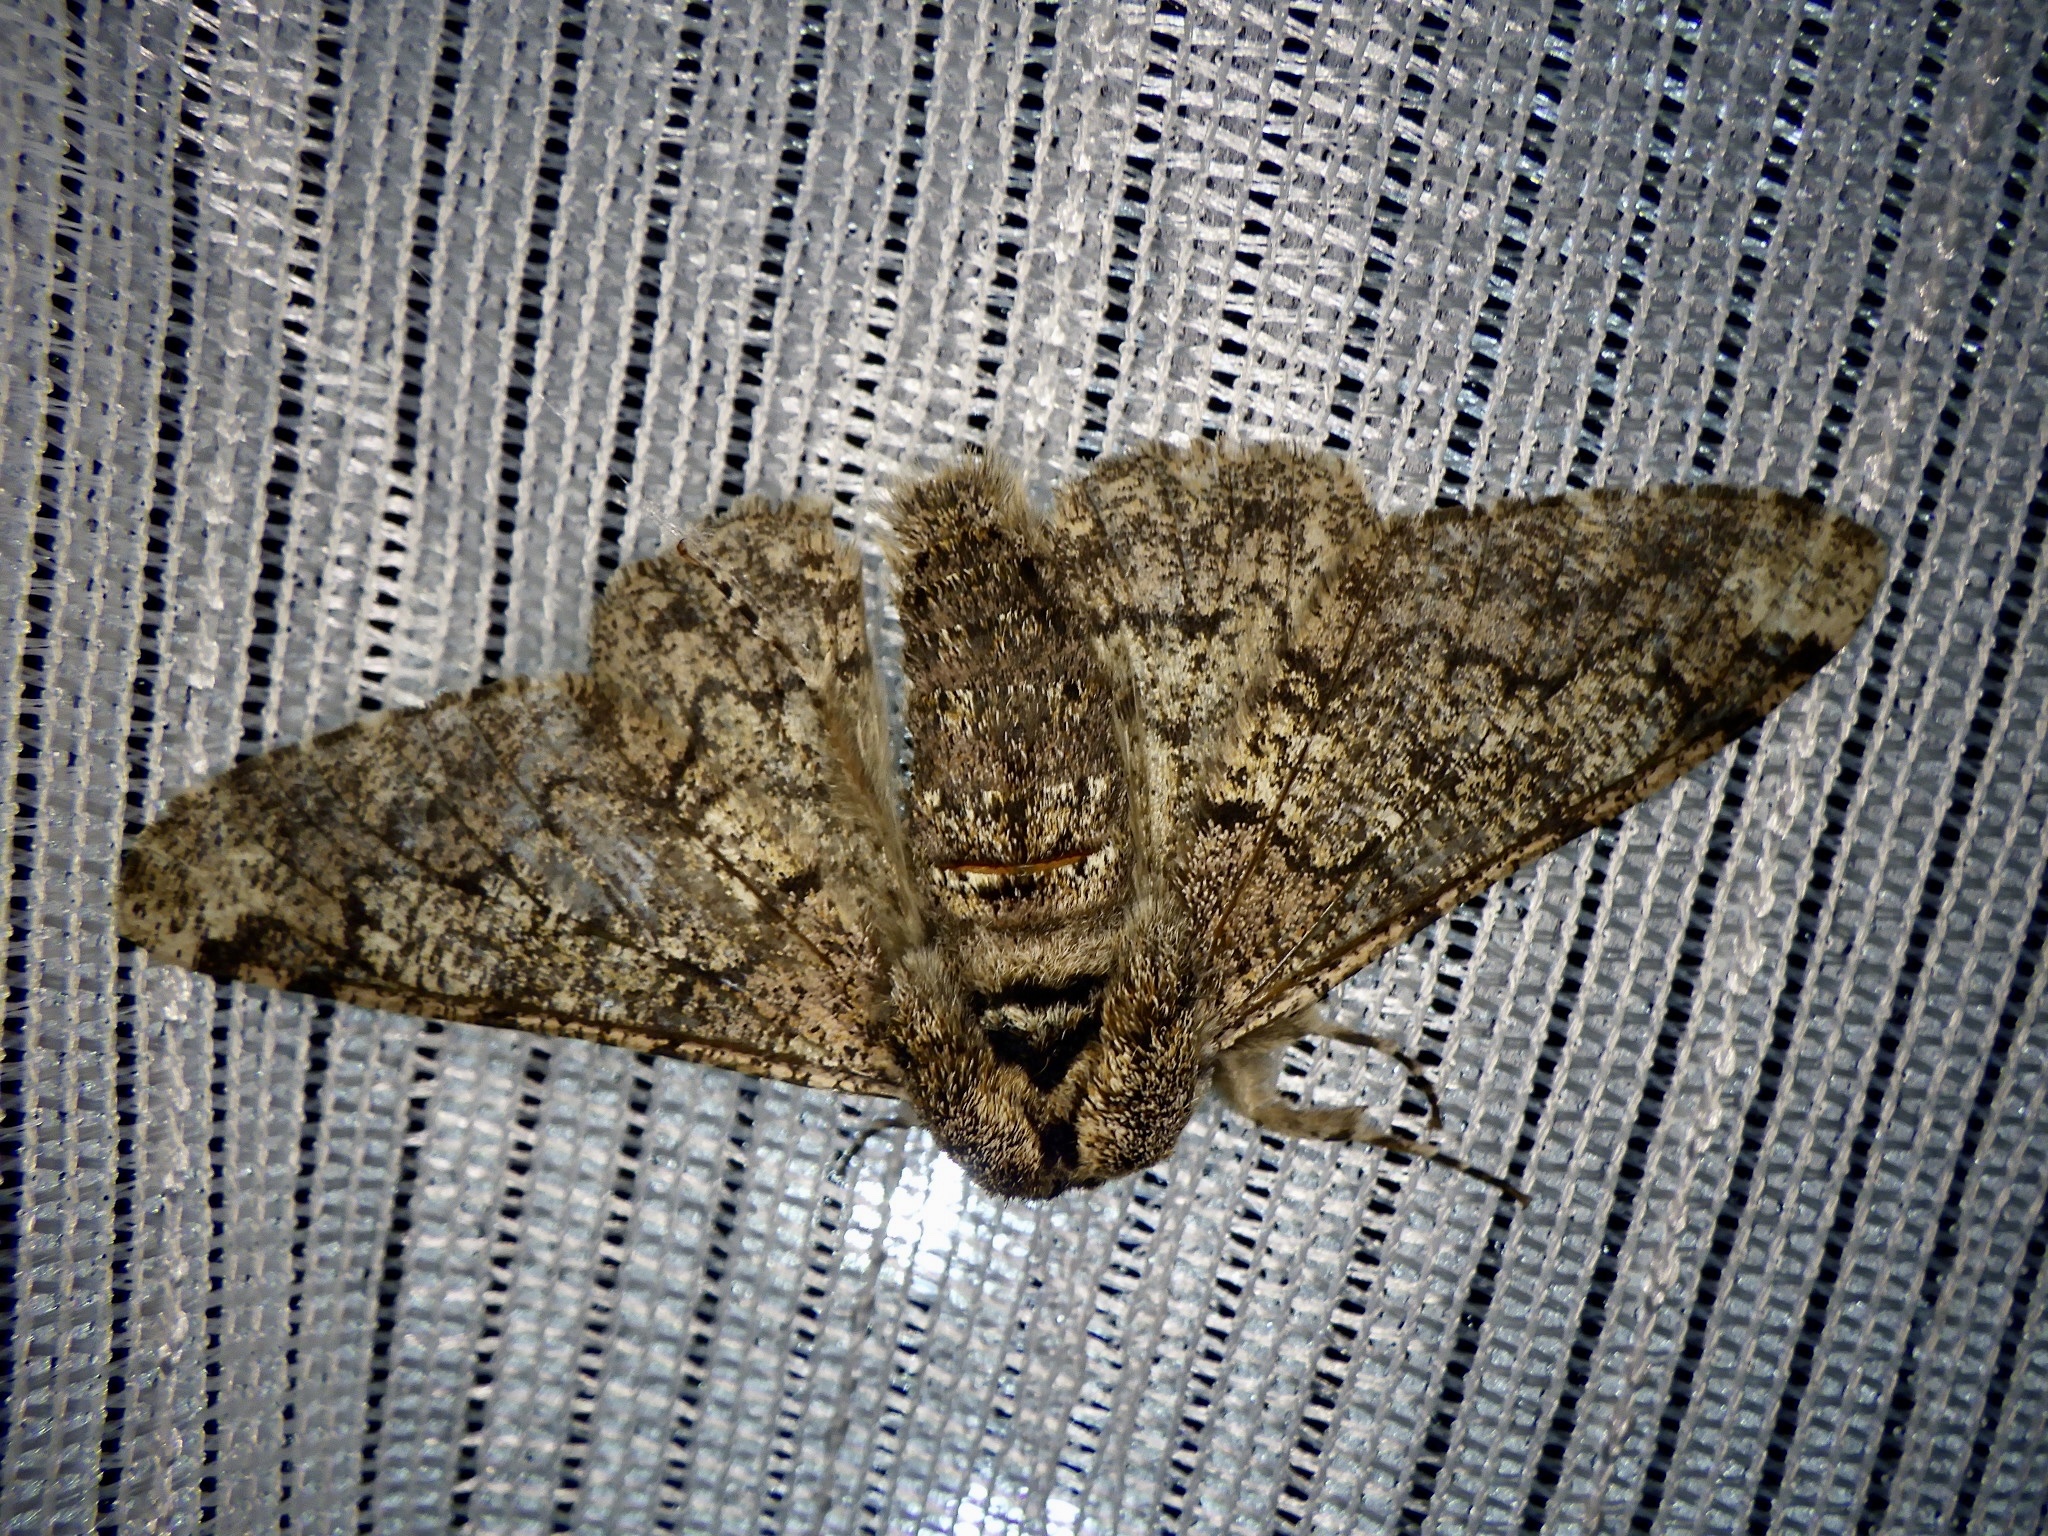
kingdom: Animalia
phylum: Arthropoda
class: Insecta
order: Lepidoptera
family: Geometridae
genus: Biston
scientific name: Biston robustum
